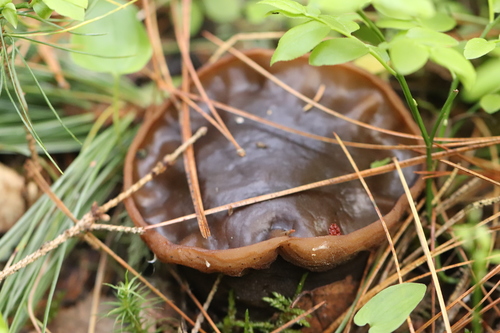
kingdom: Fungi
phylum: Ascomycota
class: Pezizomycetes
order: Pezizales
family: Sarcosomataceae
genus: Sarcosoma
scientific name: Sarcosoma globosum
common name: Charred-pancake cup
